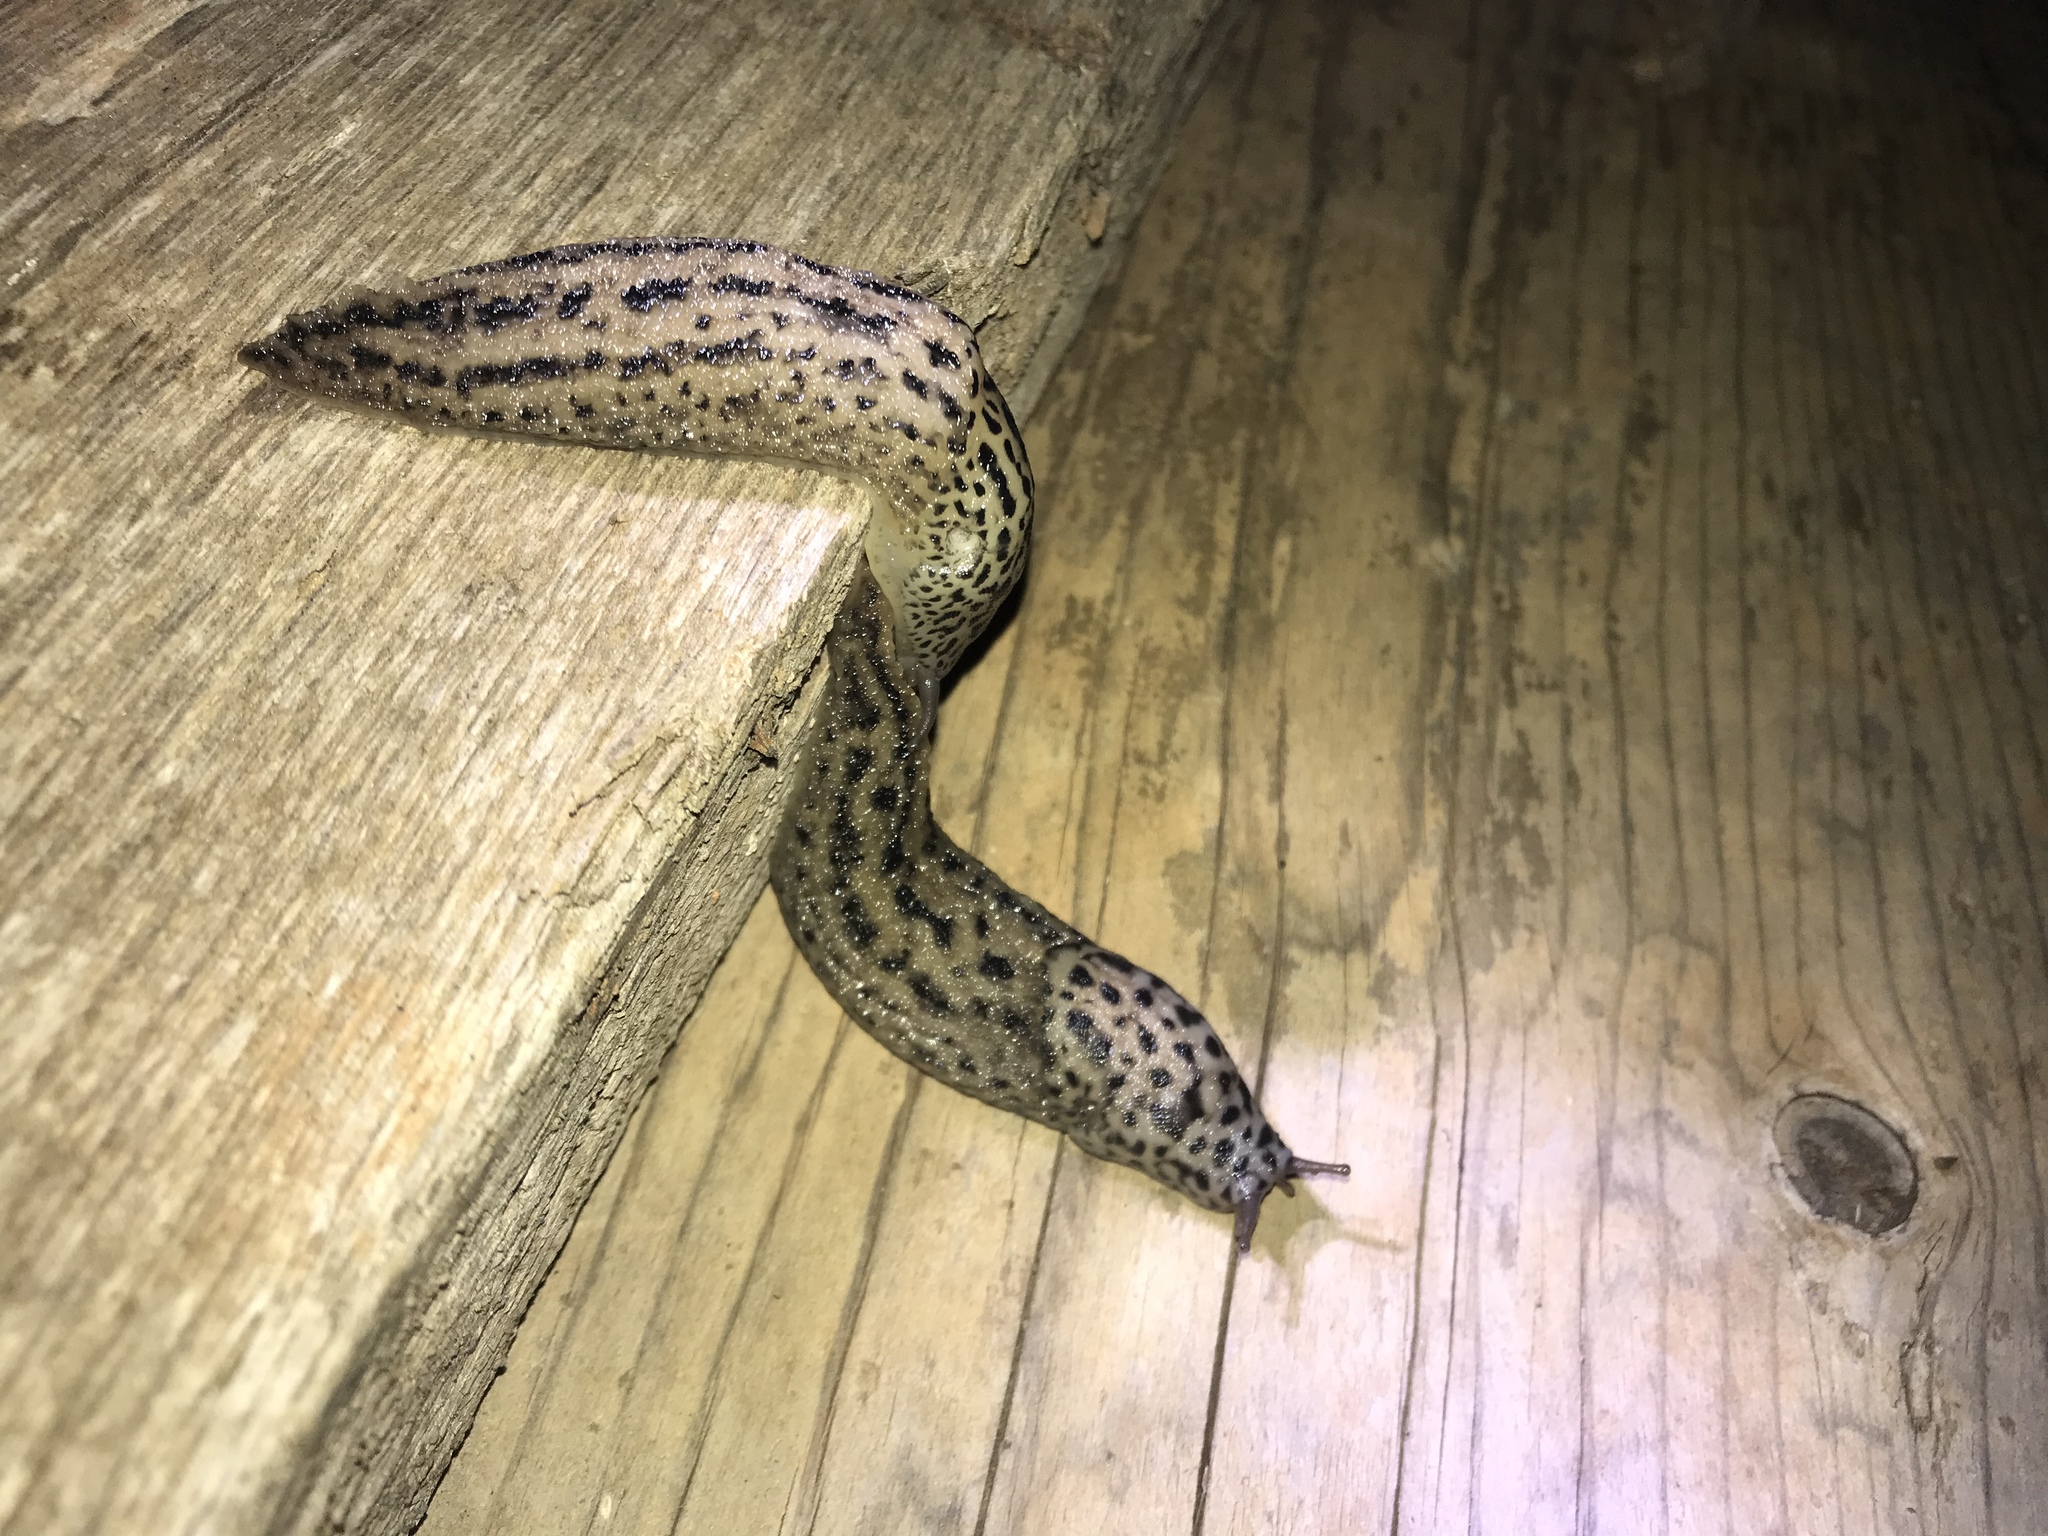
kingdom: Animalia
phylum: Mollusca
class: Gastropoda
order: Stylommatophora
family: Limacidae
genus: Limax
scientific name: Limax maximus
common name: Great grey slug
